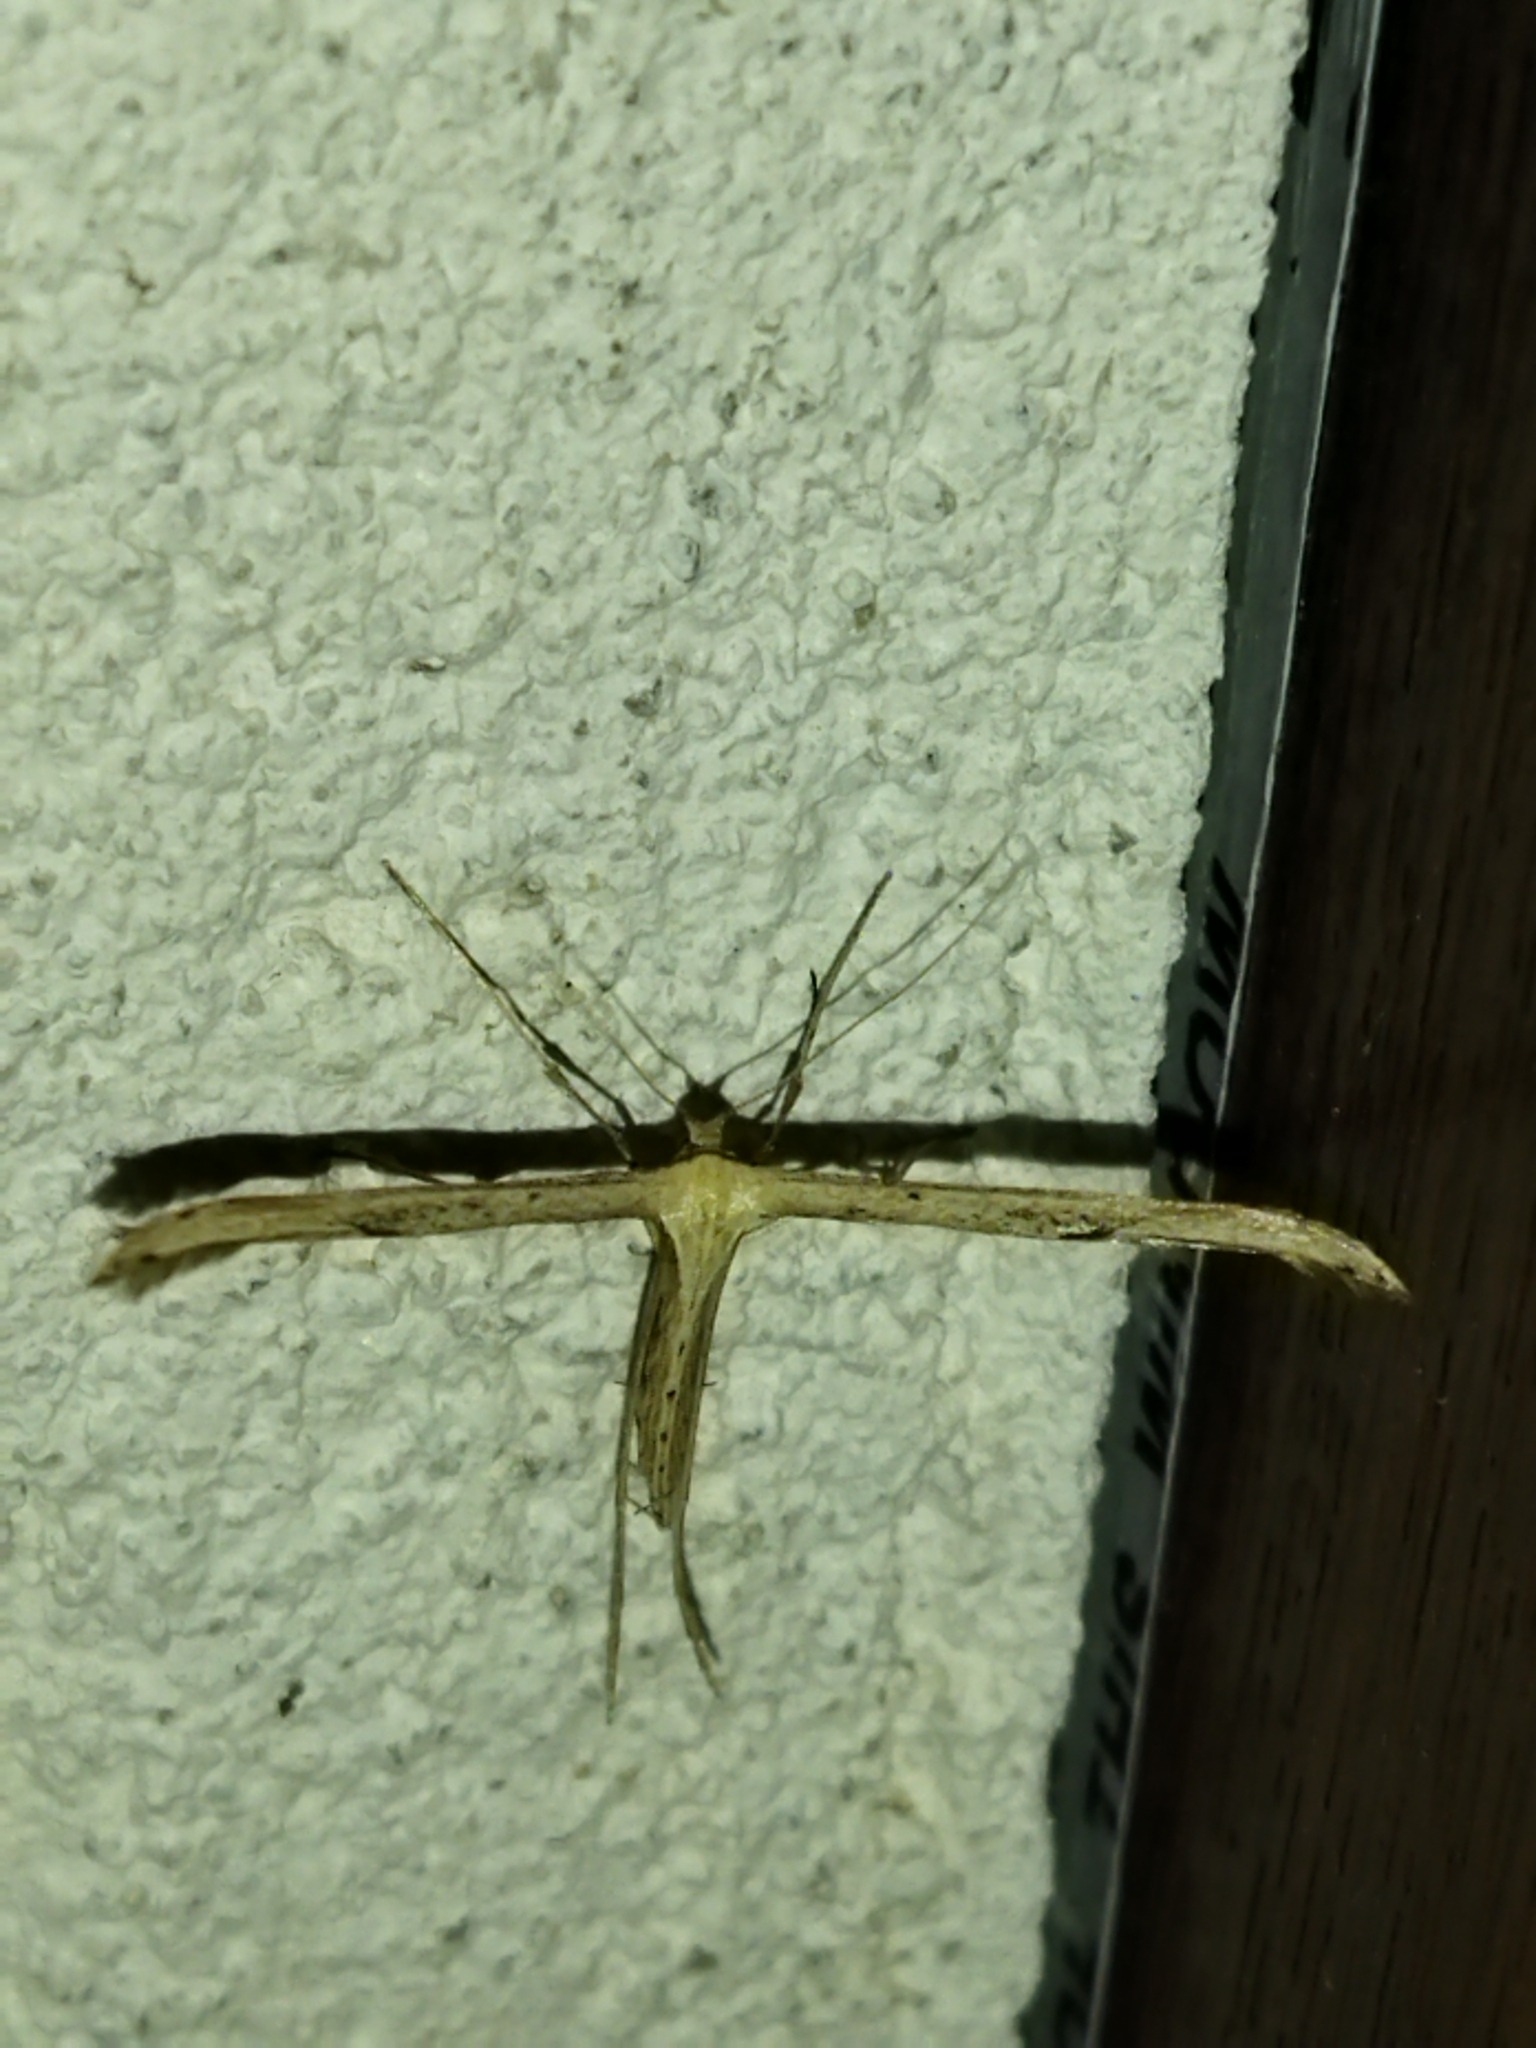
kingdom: Animalia
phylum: Arthropoda
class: Insecta
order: Lepidoptera
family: Pterophoridae
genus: Emmelina
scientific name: Emmelina monodactyla
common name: Common plume
